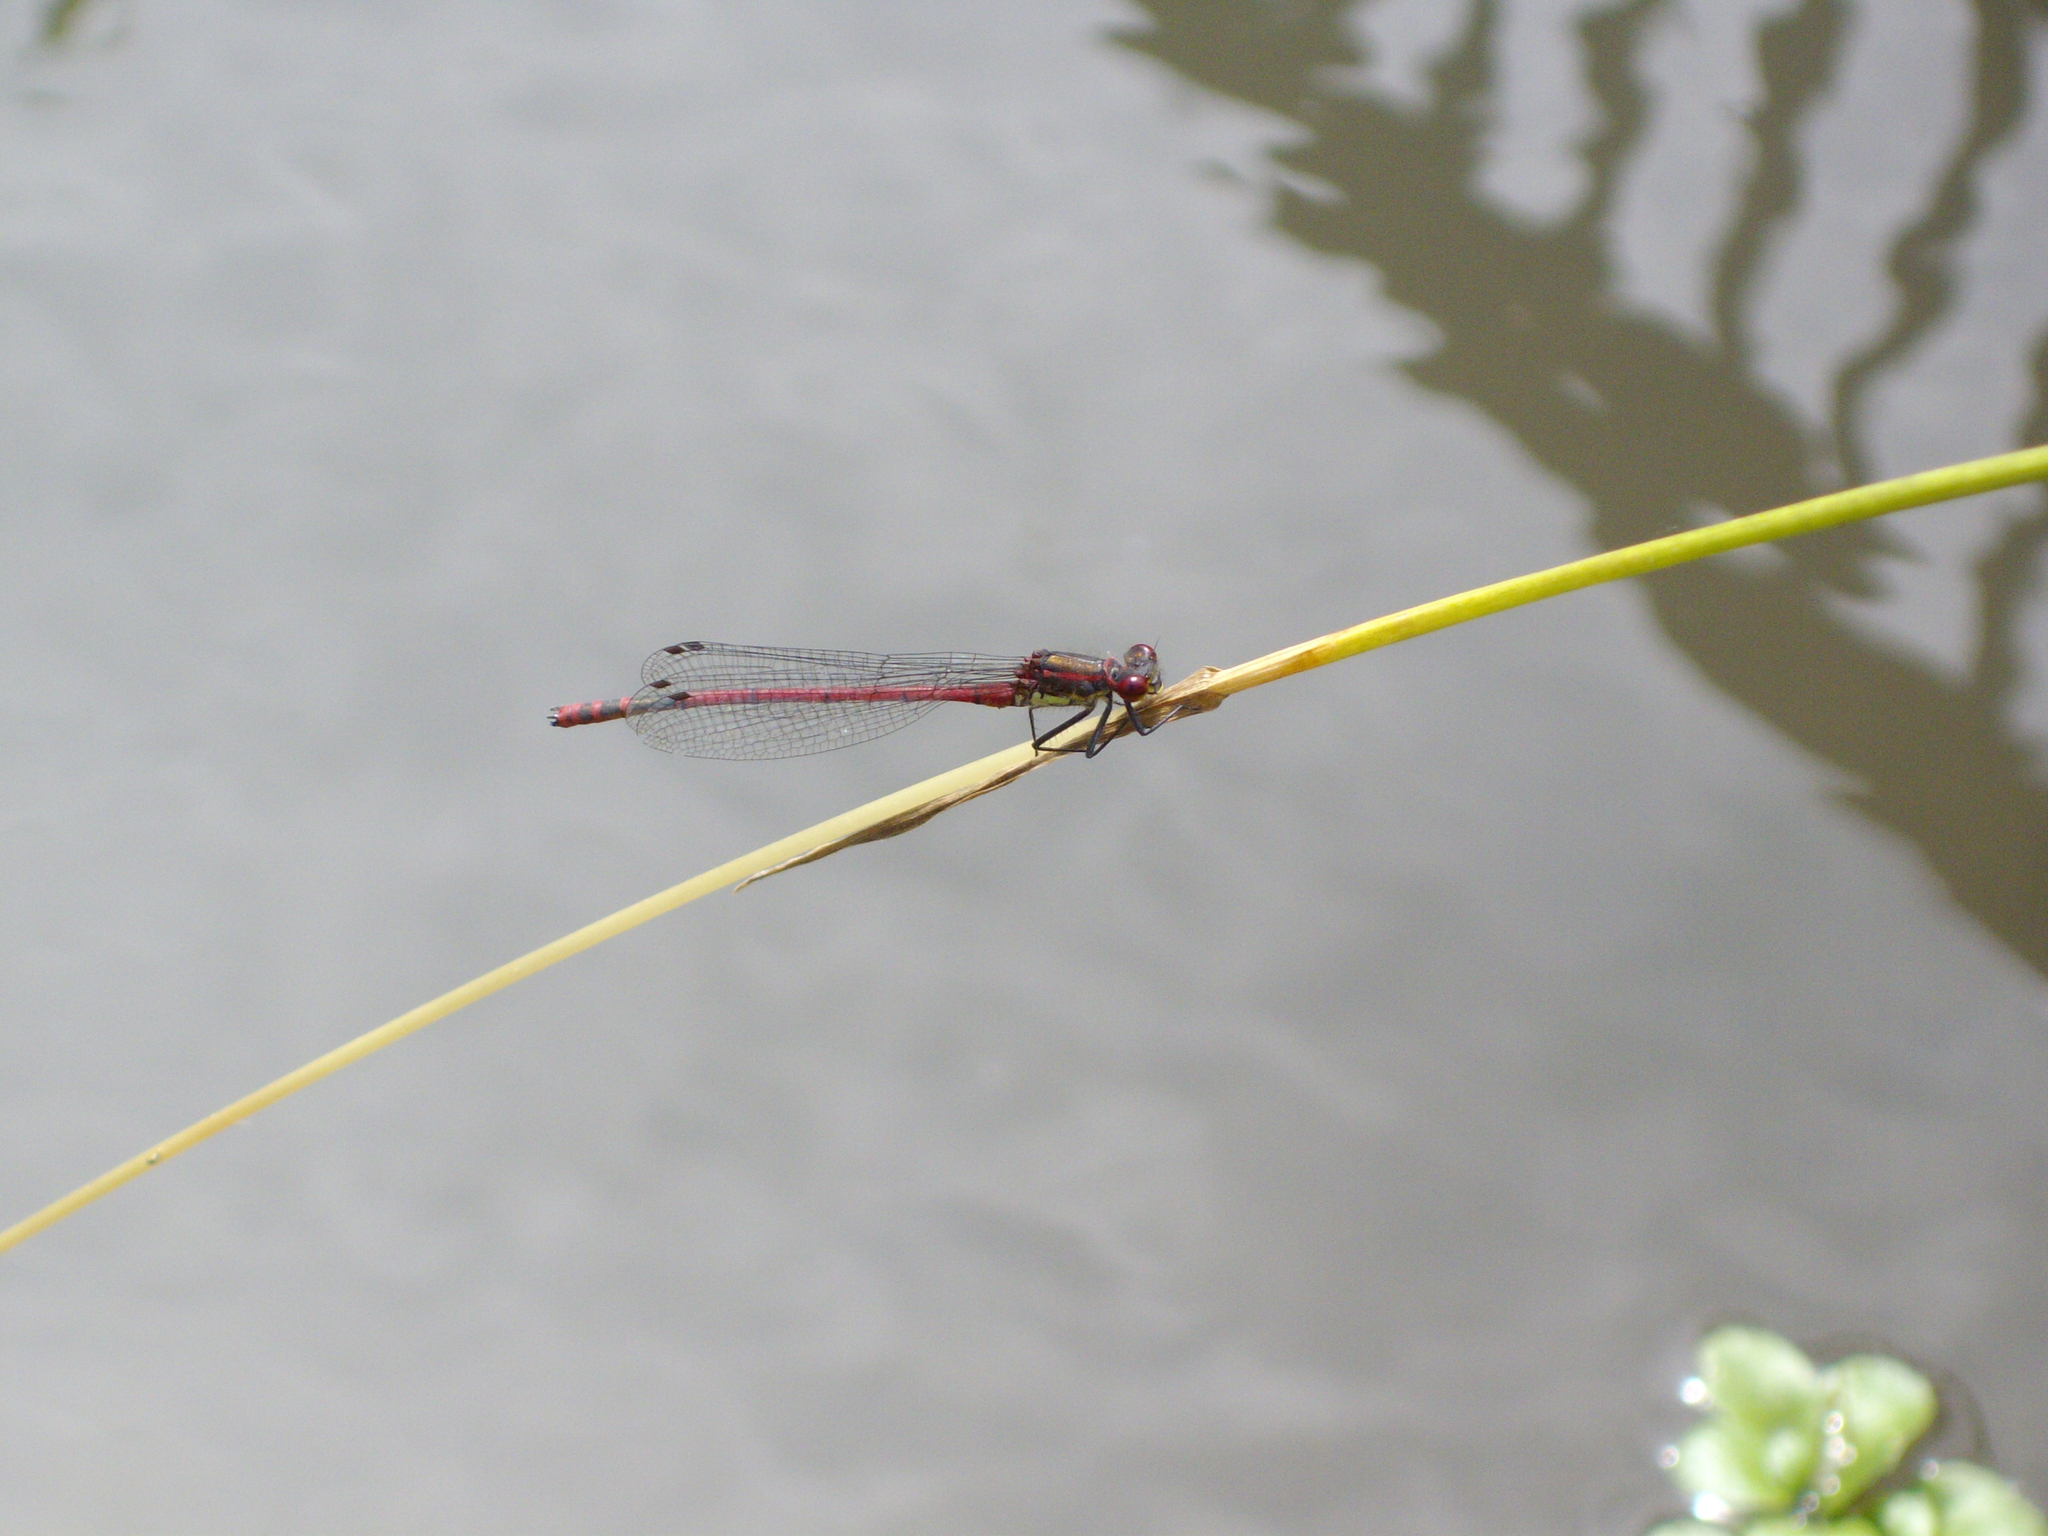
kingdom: Animalia
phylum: Arthropoda
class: Insecta
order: Odonata
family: Coenagrionidae
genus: Pyrrhosoma
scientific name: Pyrrhosoma nymphula
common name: Large red damsel
